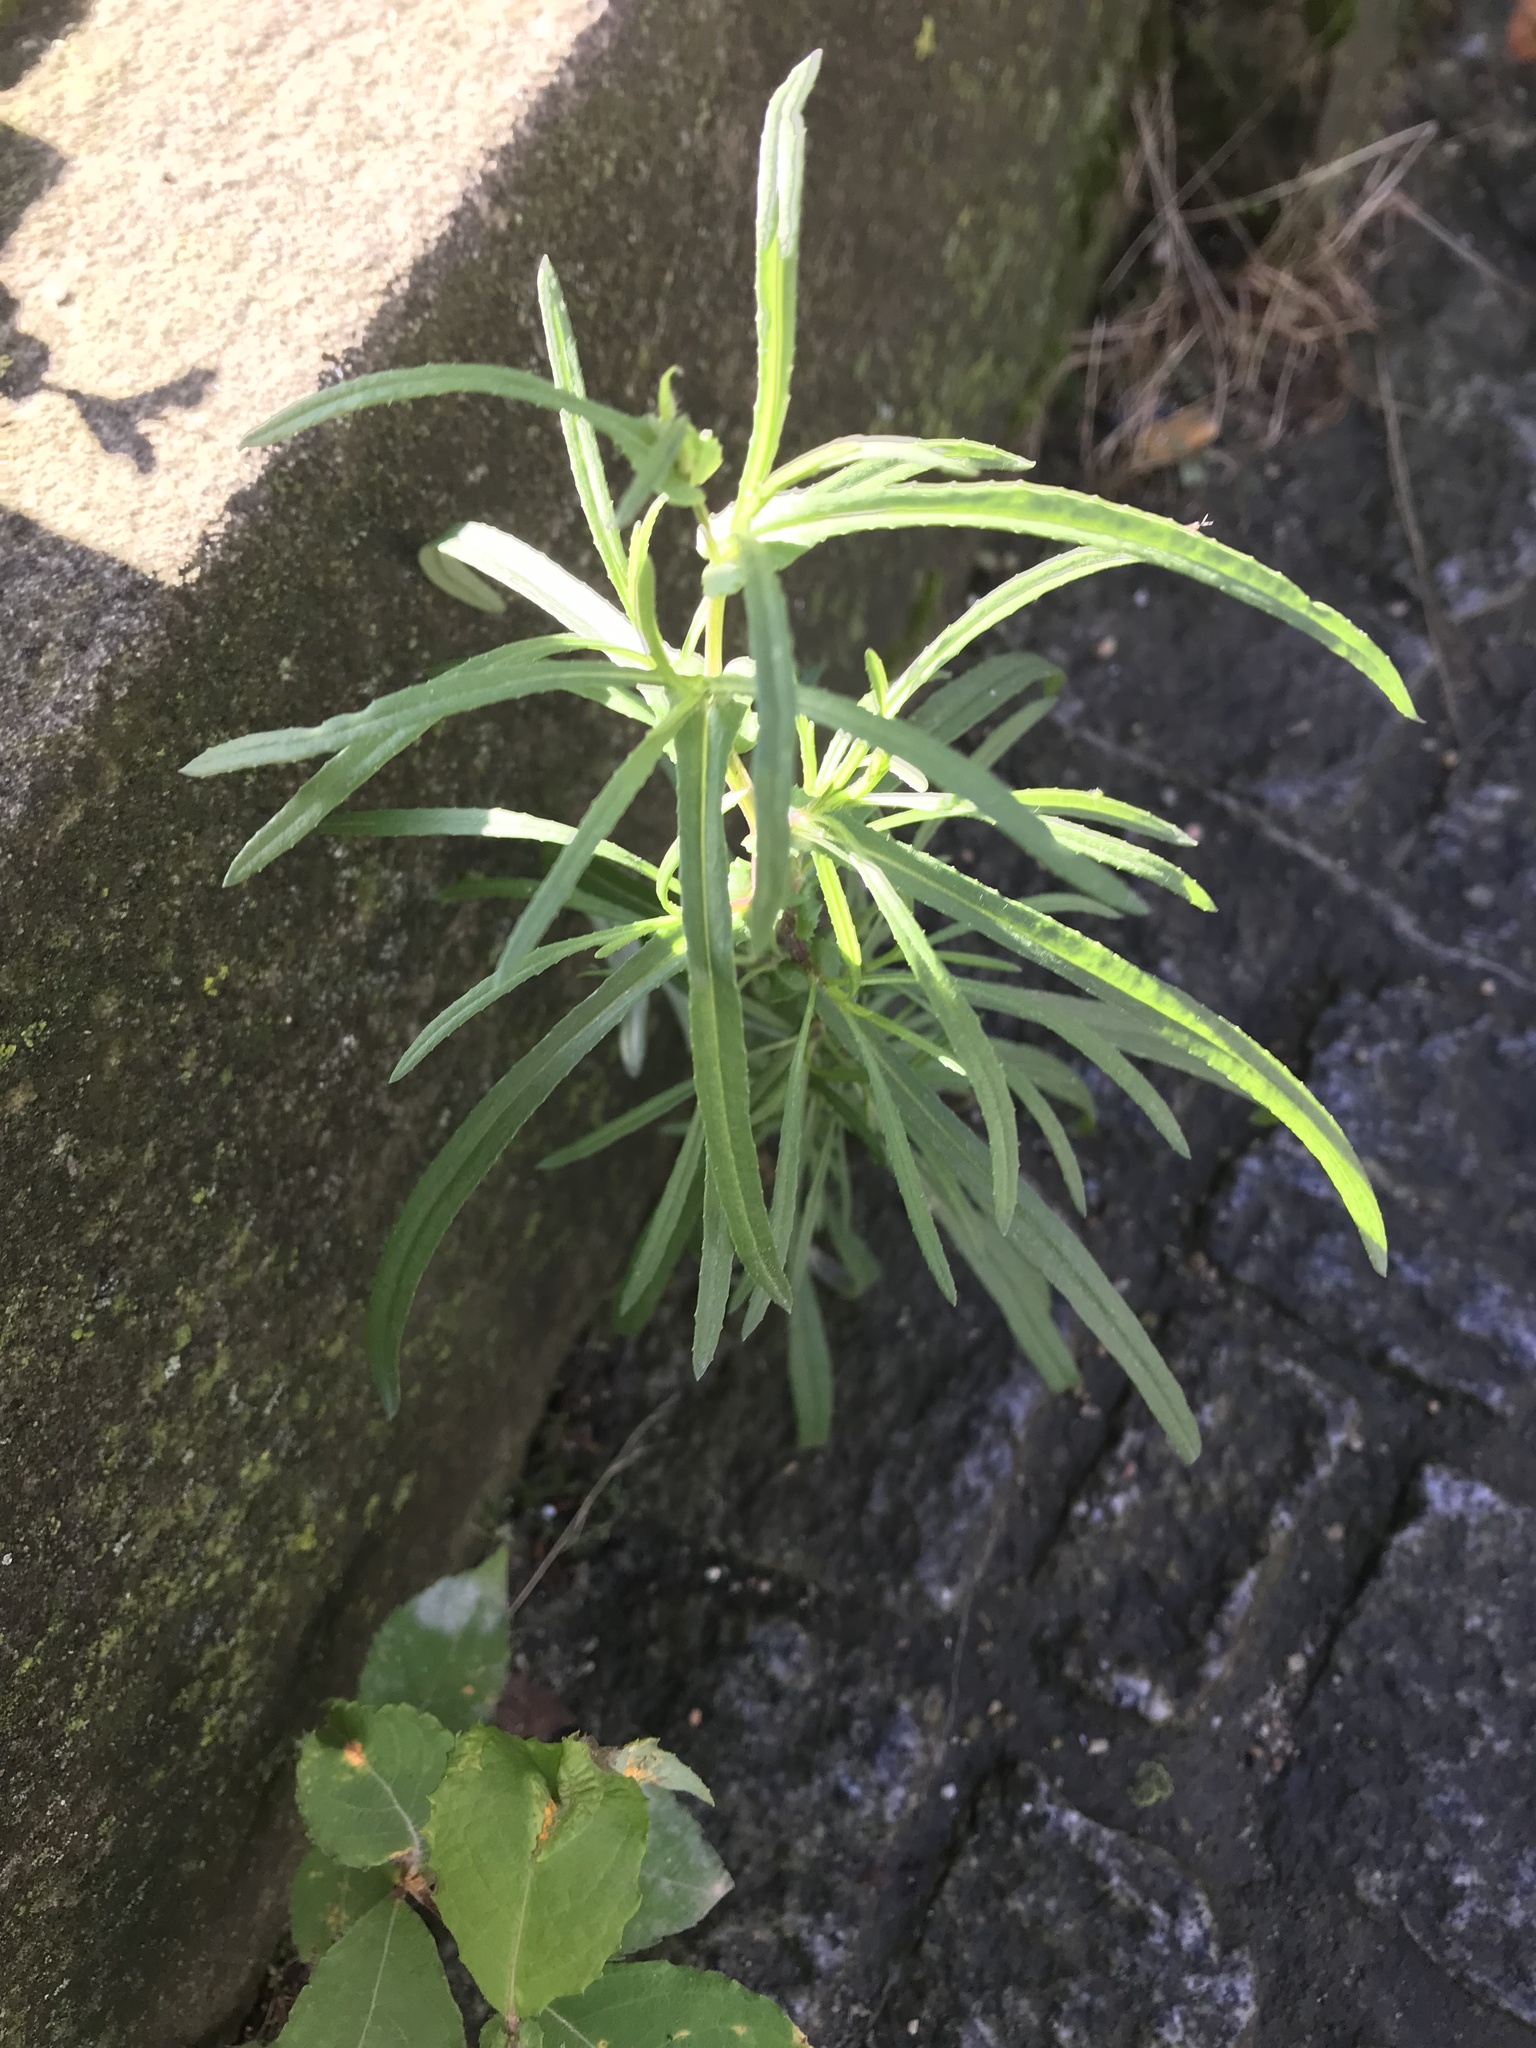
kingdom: Plantae
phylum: Tracheophyta
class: Magnoliopsida
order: Asterales
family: Asteraceae
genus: Senecio
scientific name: Senecio inaequidens
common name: Narrow-leaved ragwort
